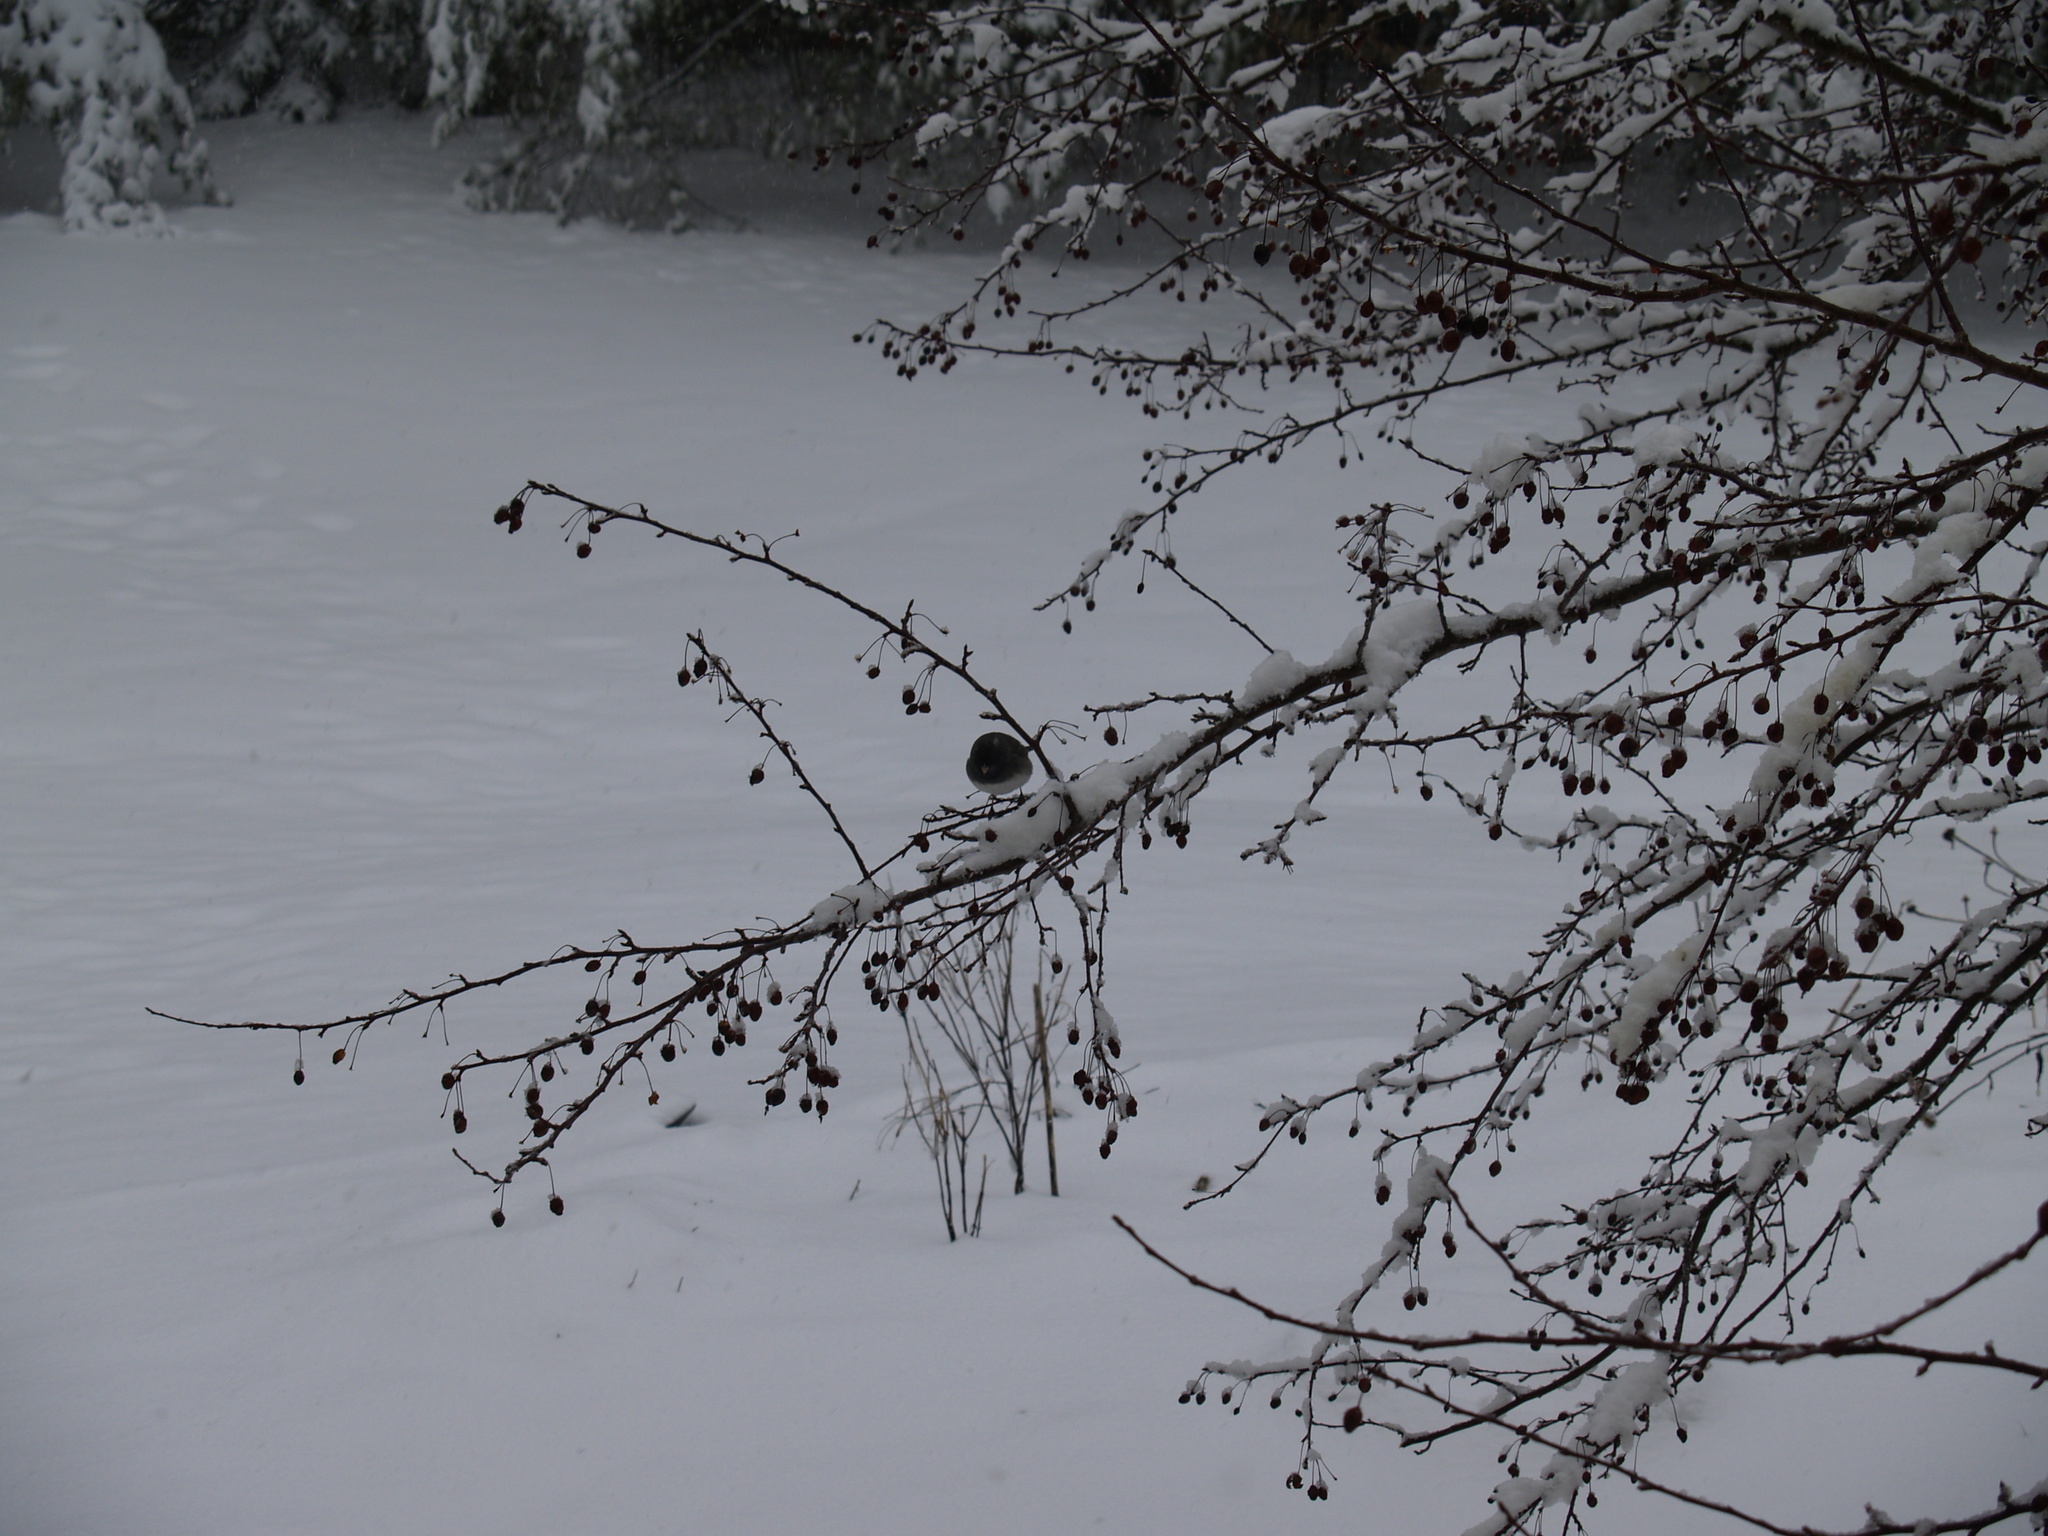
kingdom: Animalia
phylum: Chordata
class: Aves
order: Passeriformes
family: Passerellidae
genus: Junco
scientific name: Junco hyemalis
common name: Dark-eyed junco
